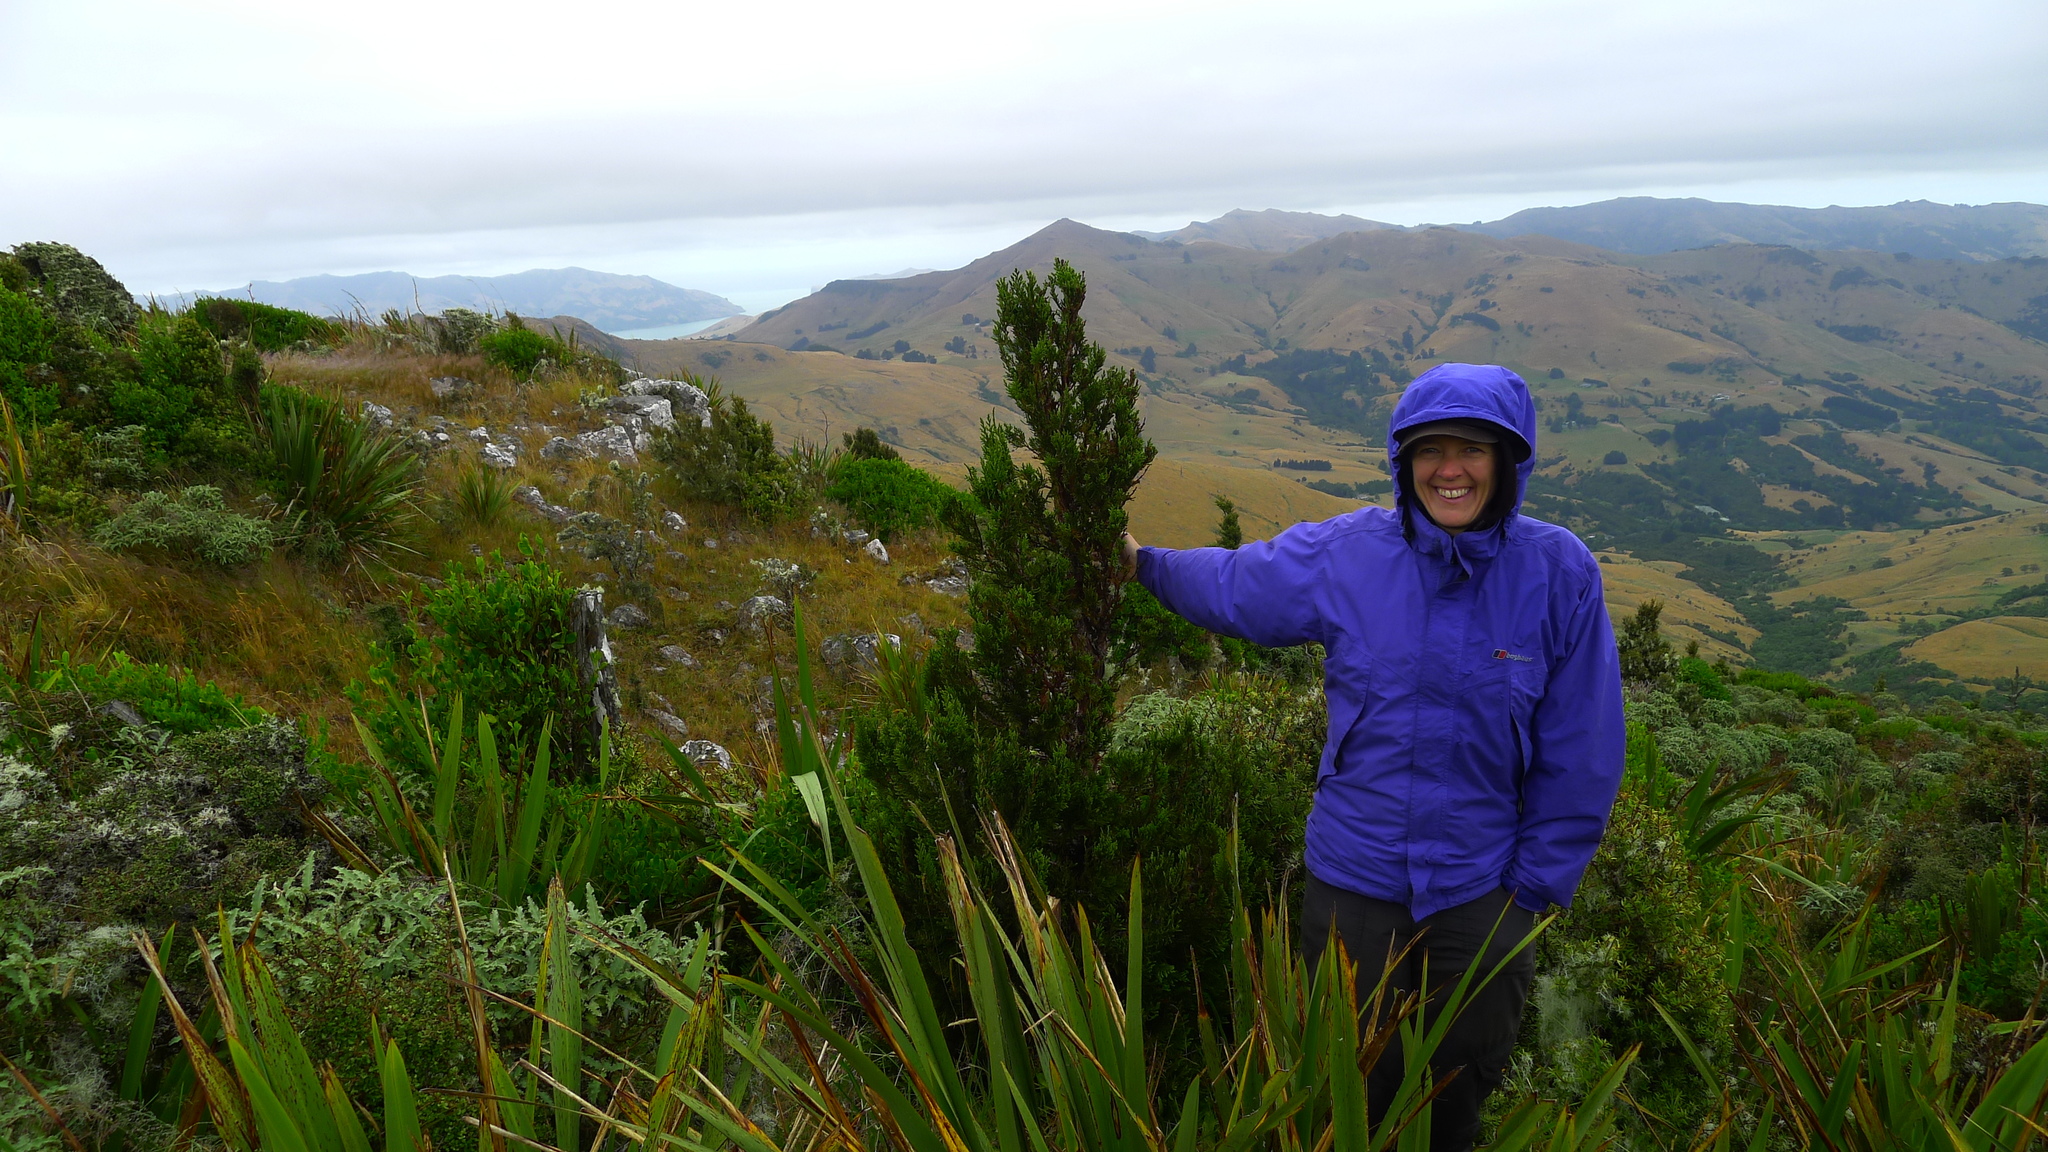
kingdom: Plantae
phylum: Tracheophyta
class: Pinopsida
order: Pinales
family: Cupressaceae
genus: Libocedrus
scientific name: Libocedrus bidwillii
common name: Cedar
